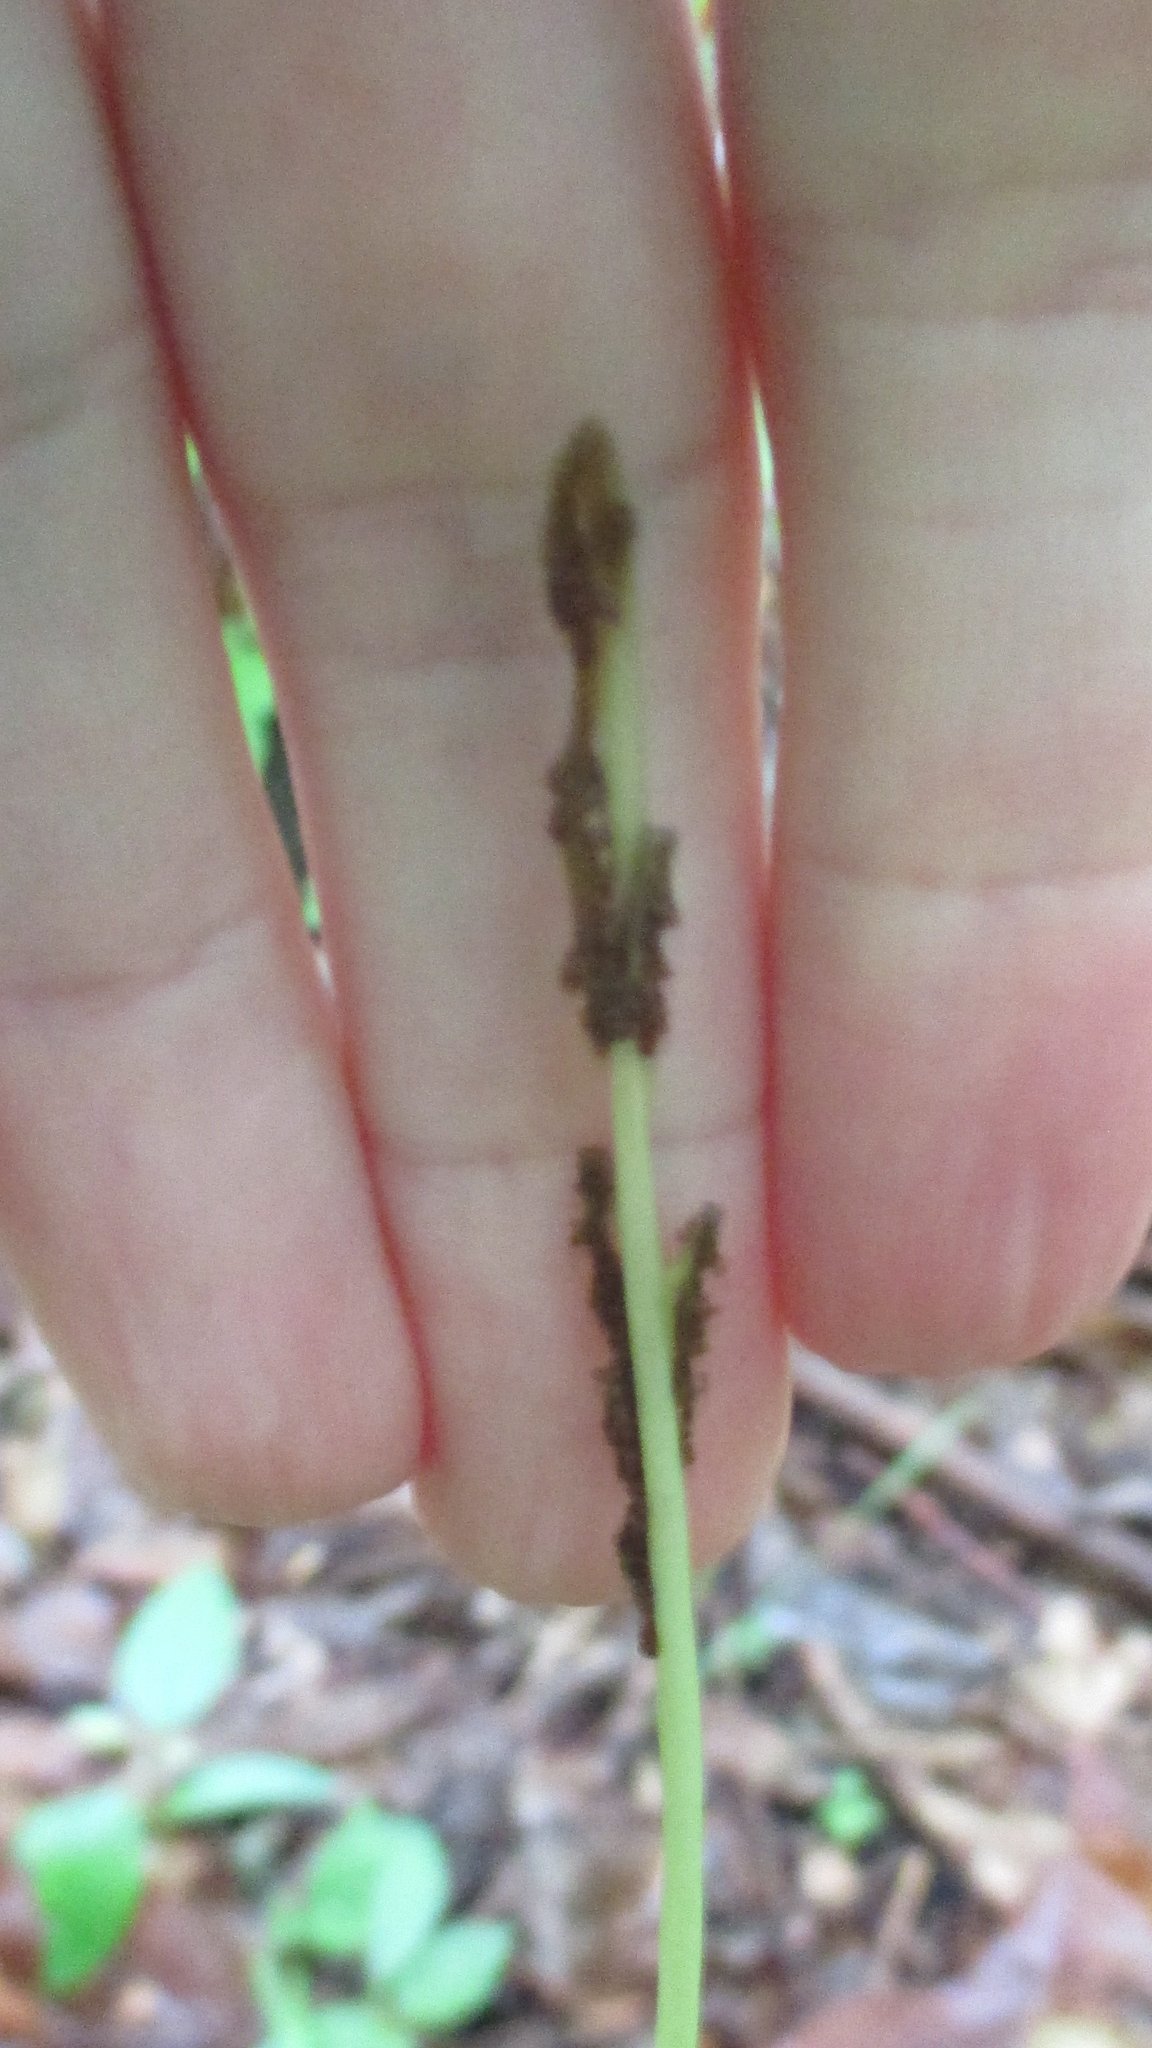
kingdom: Plantae
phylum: Tracheophyta
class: Polypodiopsida
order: Ophioglossales
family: Ophioglossaceae
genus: Botrypus
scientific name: Botrypus virginianus
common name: Common grapefern
